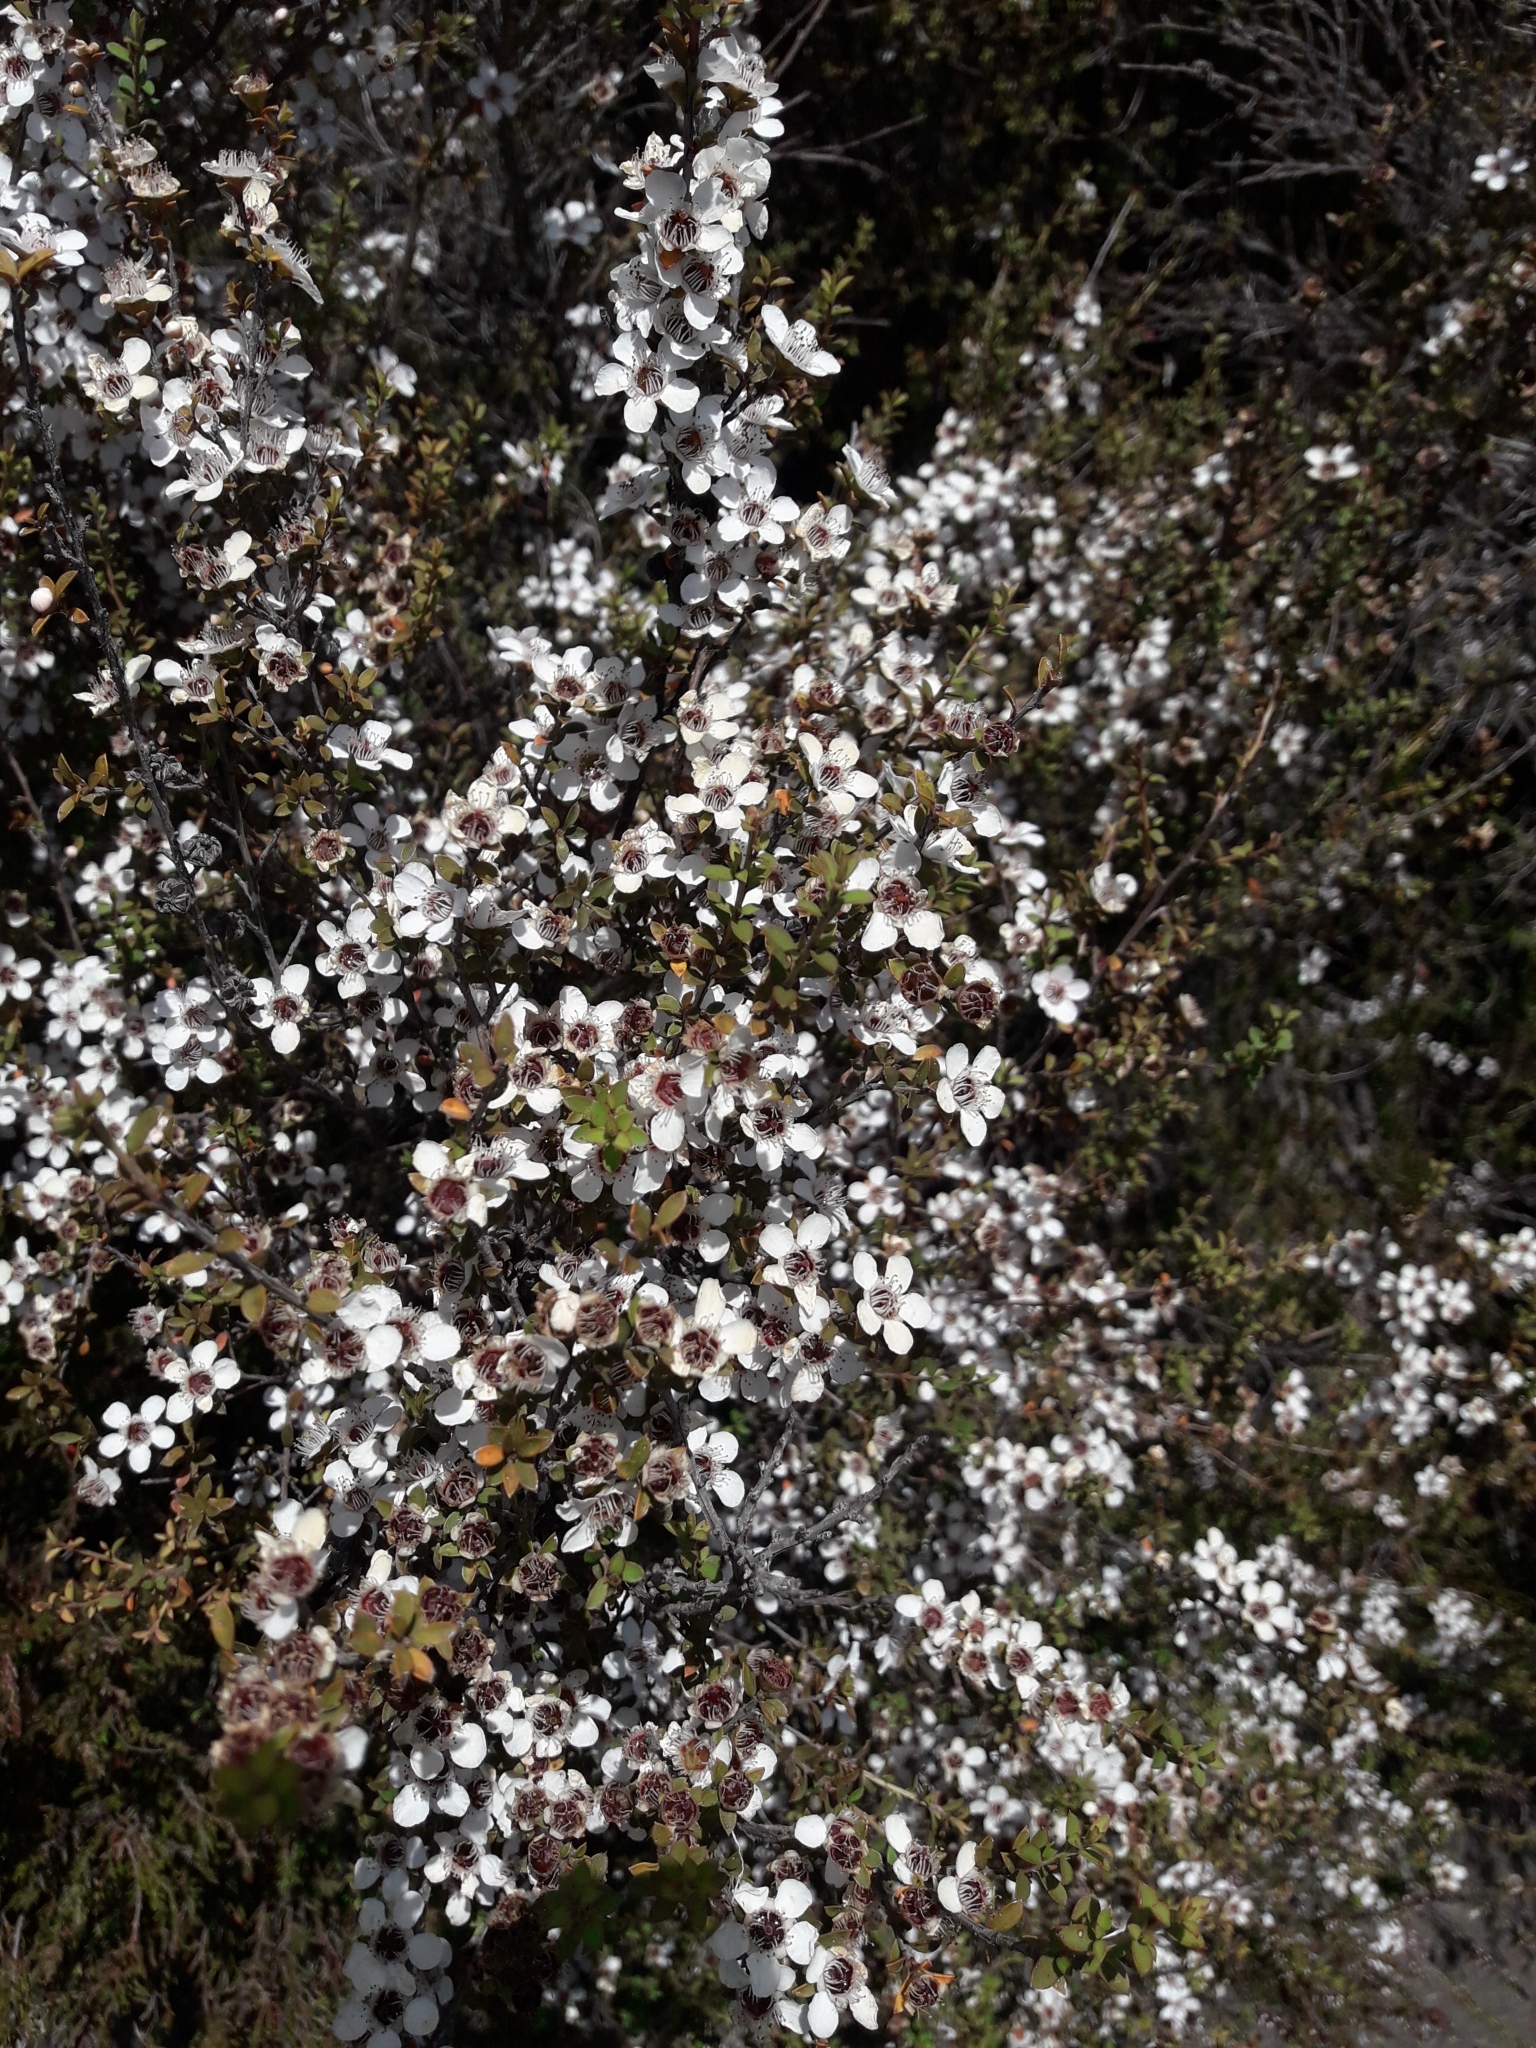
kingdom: Plantae
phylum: Tracheophyta
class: Magnoliopsida
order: Myrtales
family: Myrtaceae
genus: Leptospermum
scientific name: Leptospermum scoparium
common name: Broom tea-tree
